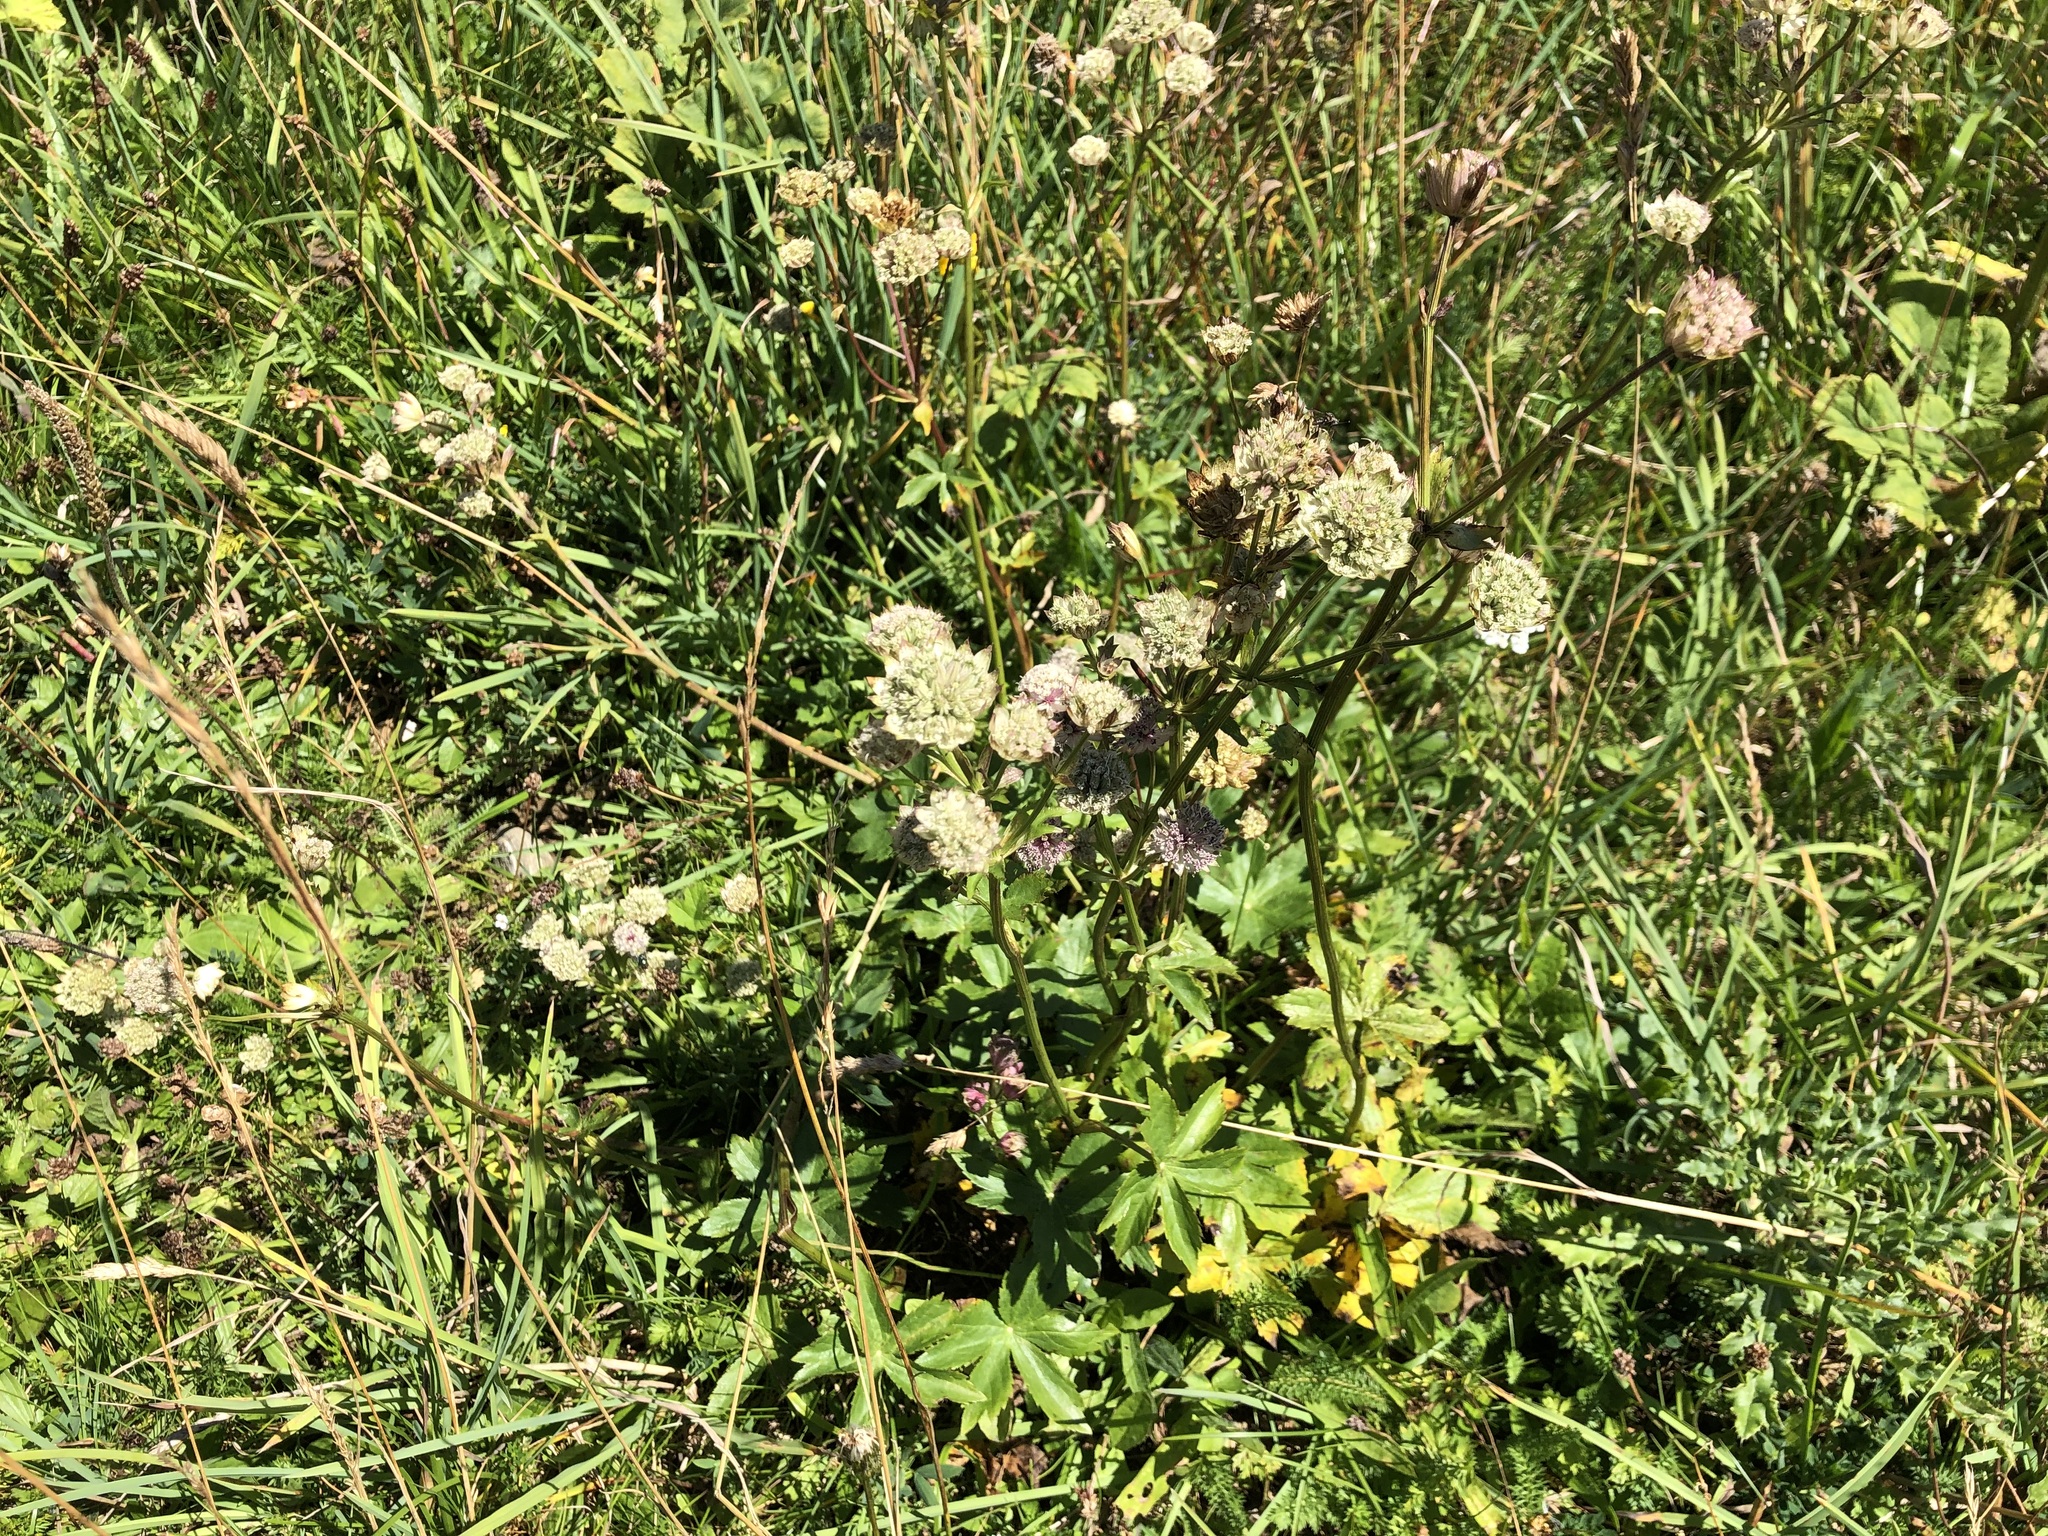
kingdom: Plantae
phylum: Tracheophyta
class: Magnoliopsida
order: Apiales
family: Apiaceae
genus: Astrantia
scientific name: Astrantia major
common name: Greater masterwort
